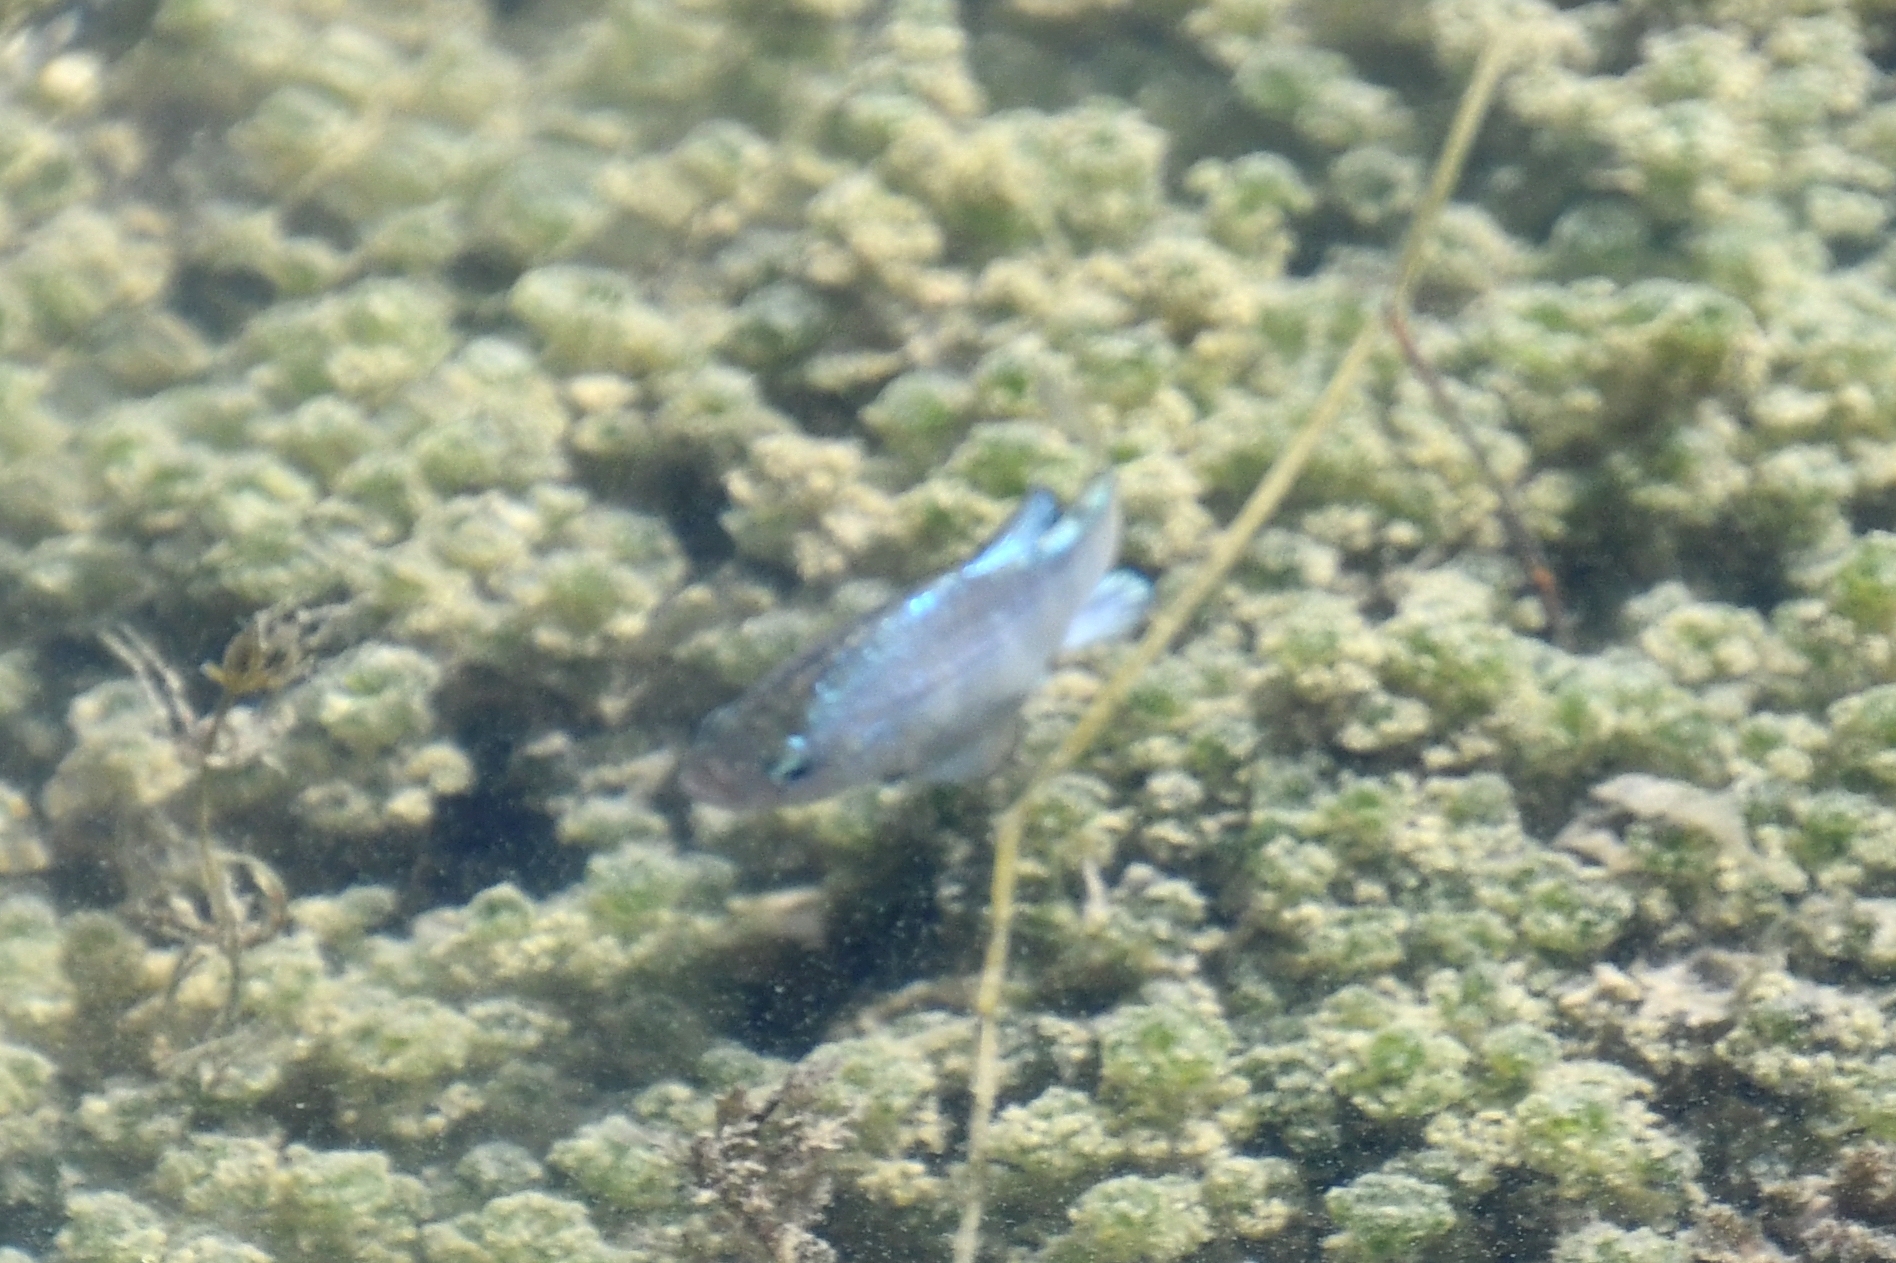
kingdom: Animalia
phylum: Chordata
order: Cyprinodontiformes
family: Cyprinodontidae
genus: Cyprinodon
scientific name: Cyprinodon macularius
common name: Desert pupfish
